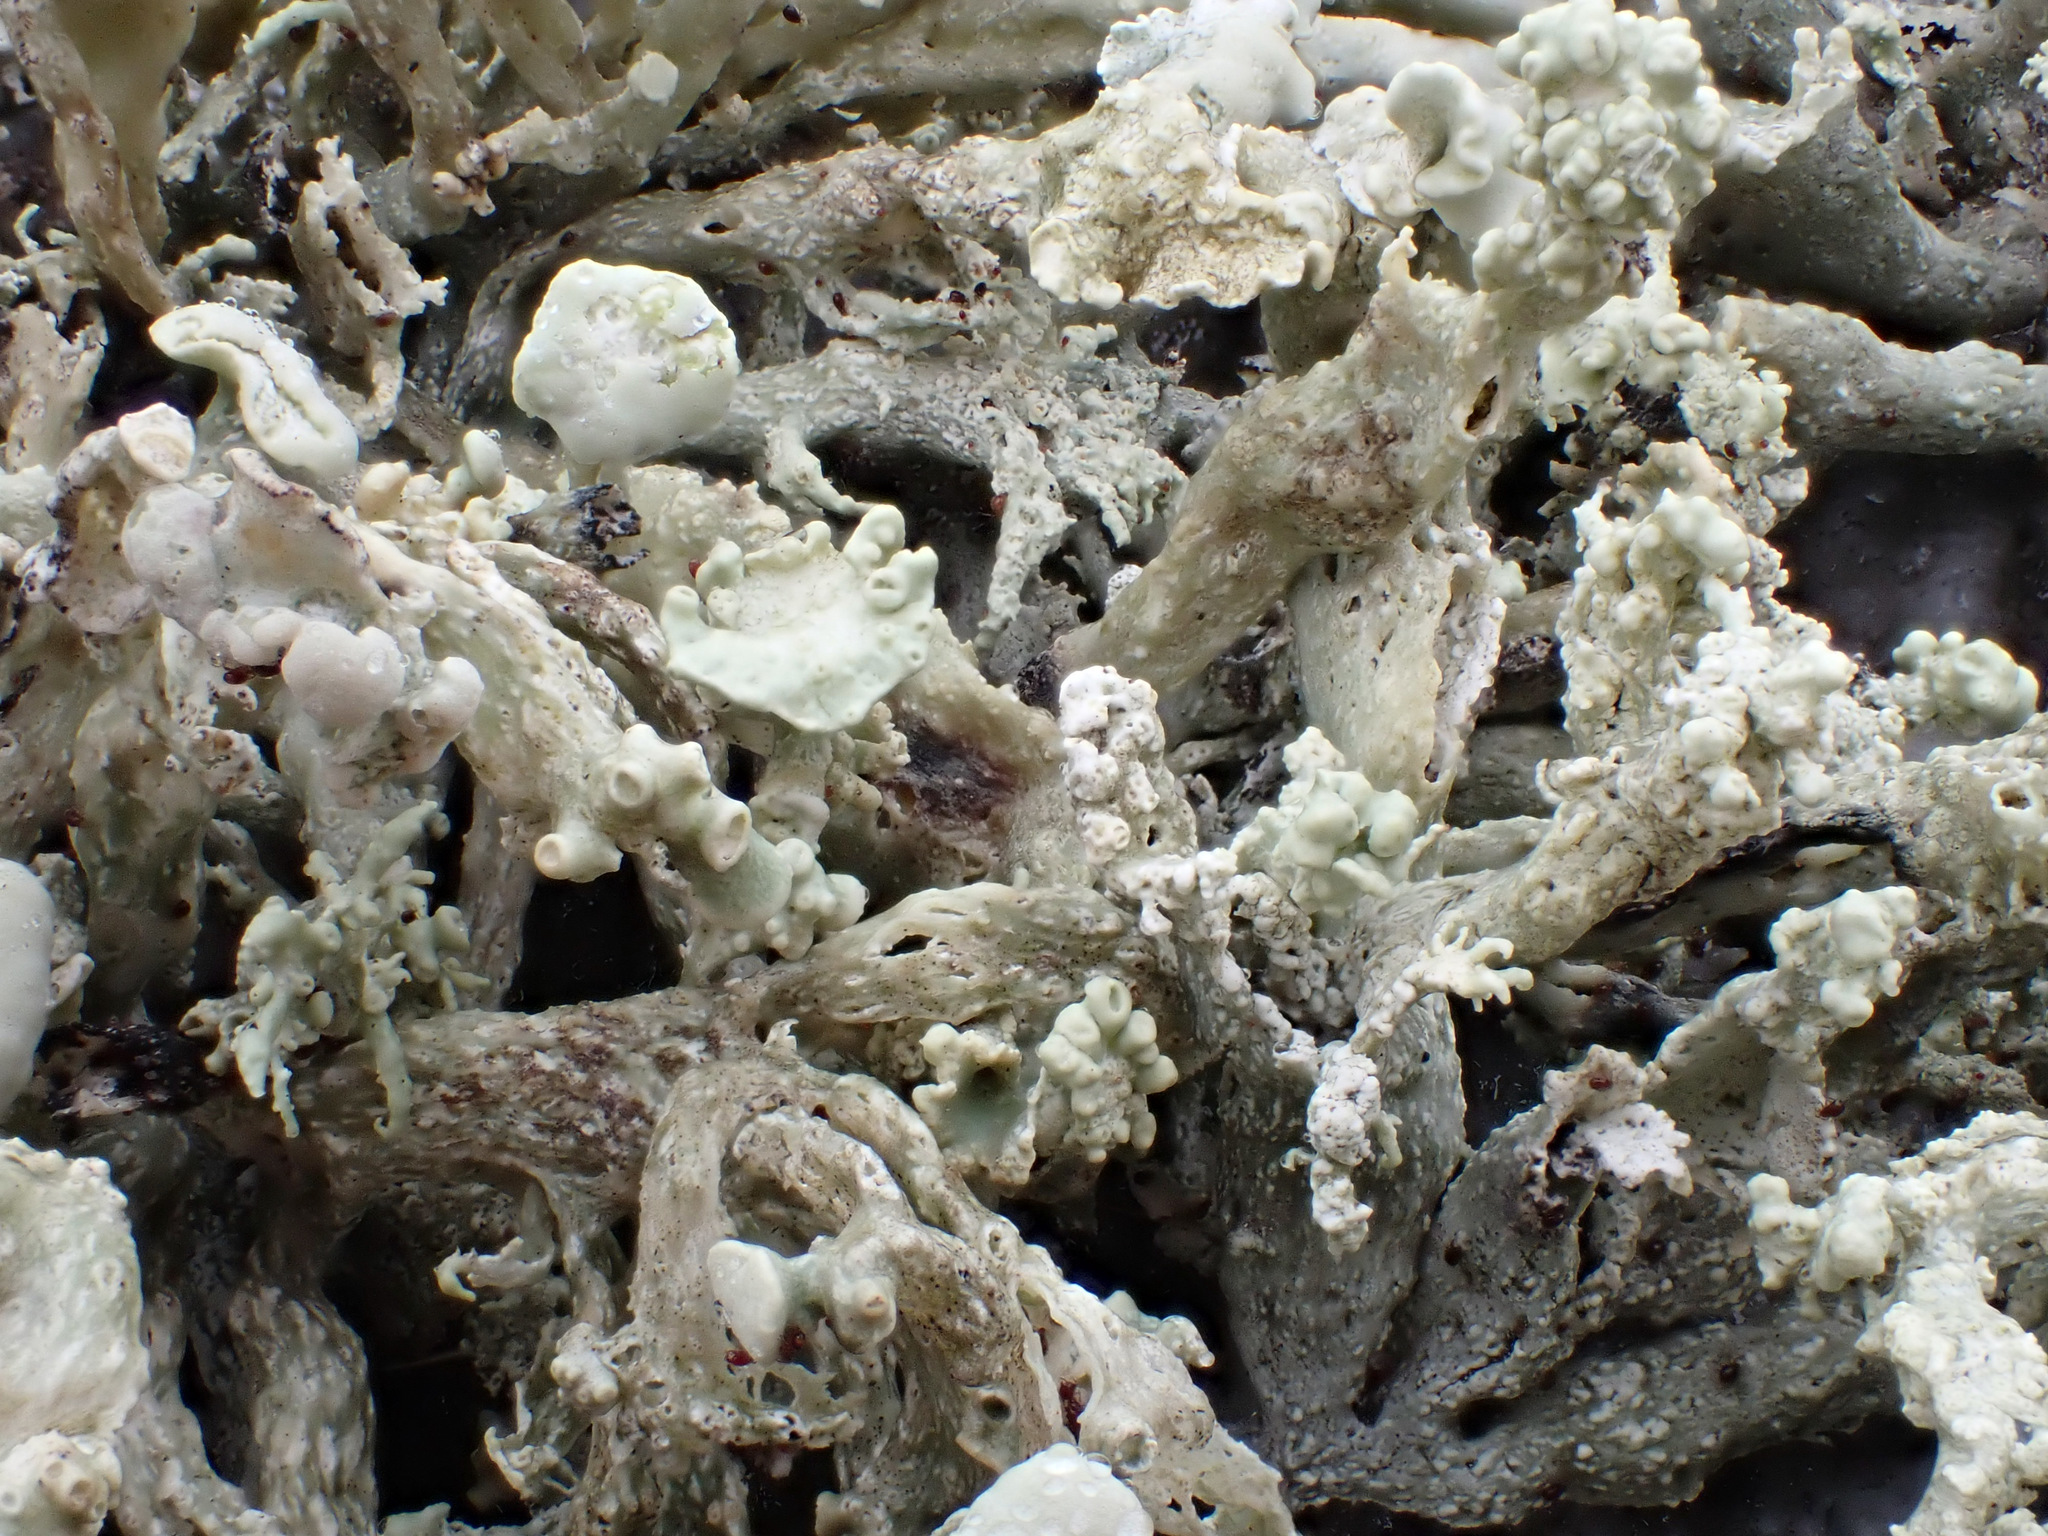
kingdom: Fungi
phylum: Ascomycota
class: Lecanoromycetes
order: Lecanorales
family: Ramalinaceae
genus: Ramalina
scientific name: Ramalina siliquosa
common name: Sea ivory
